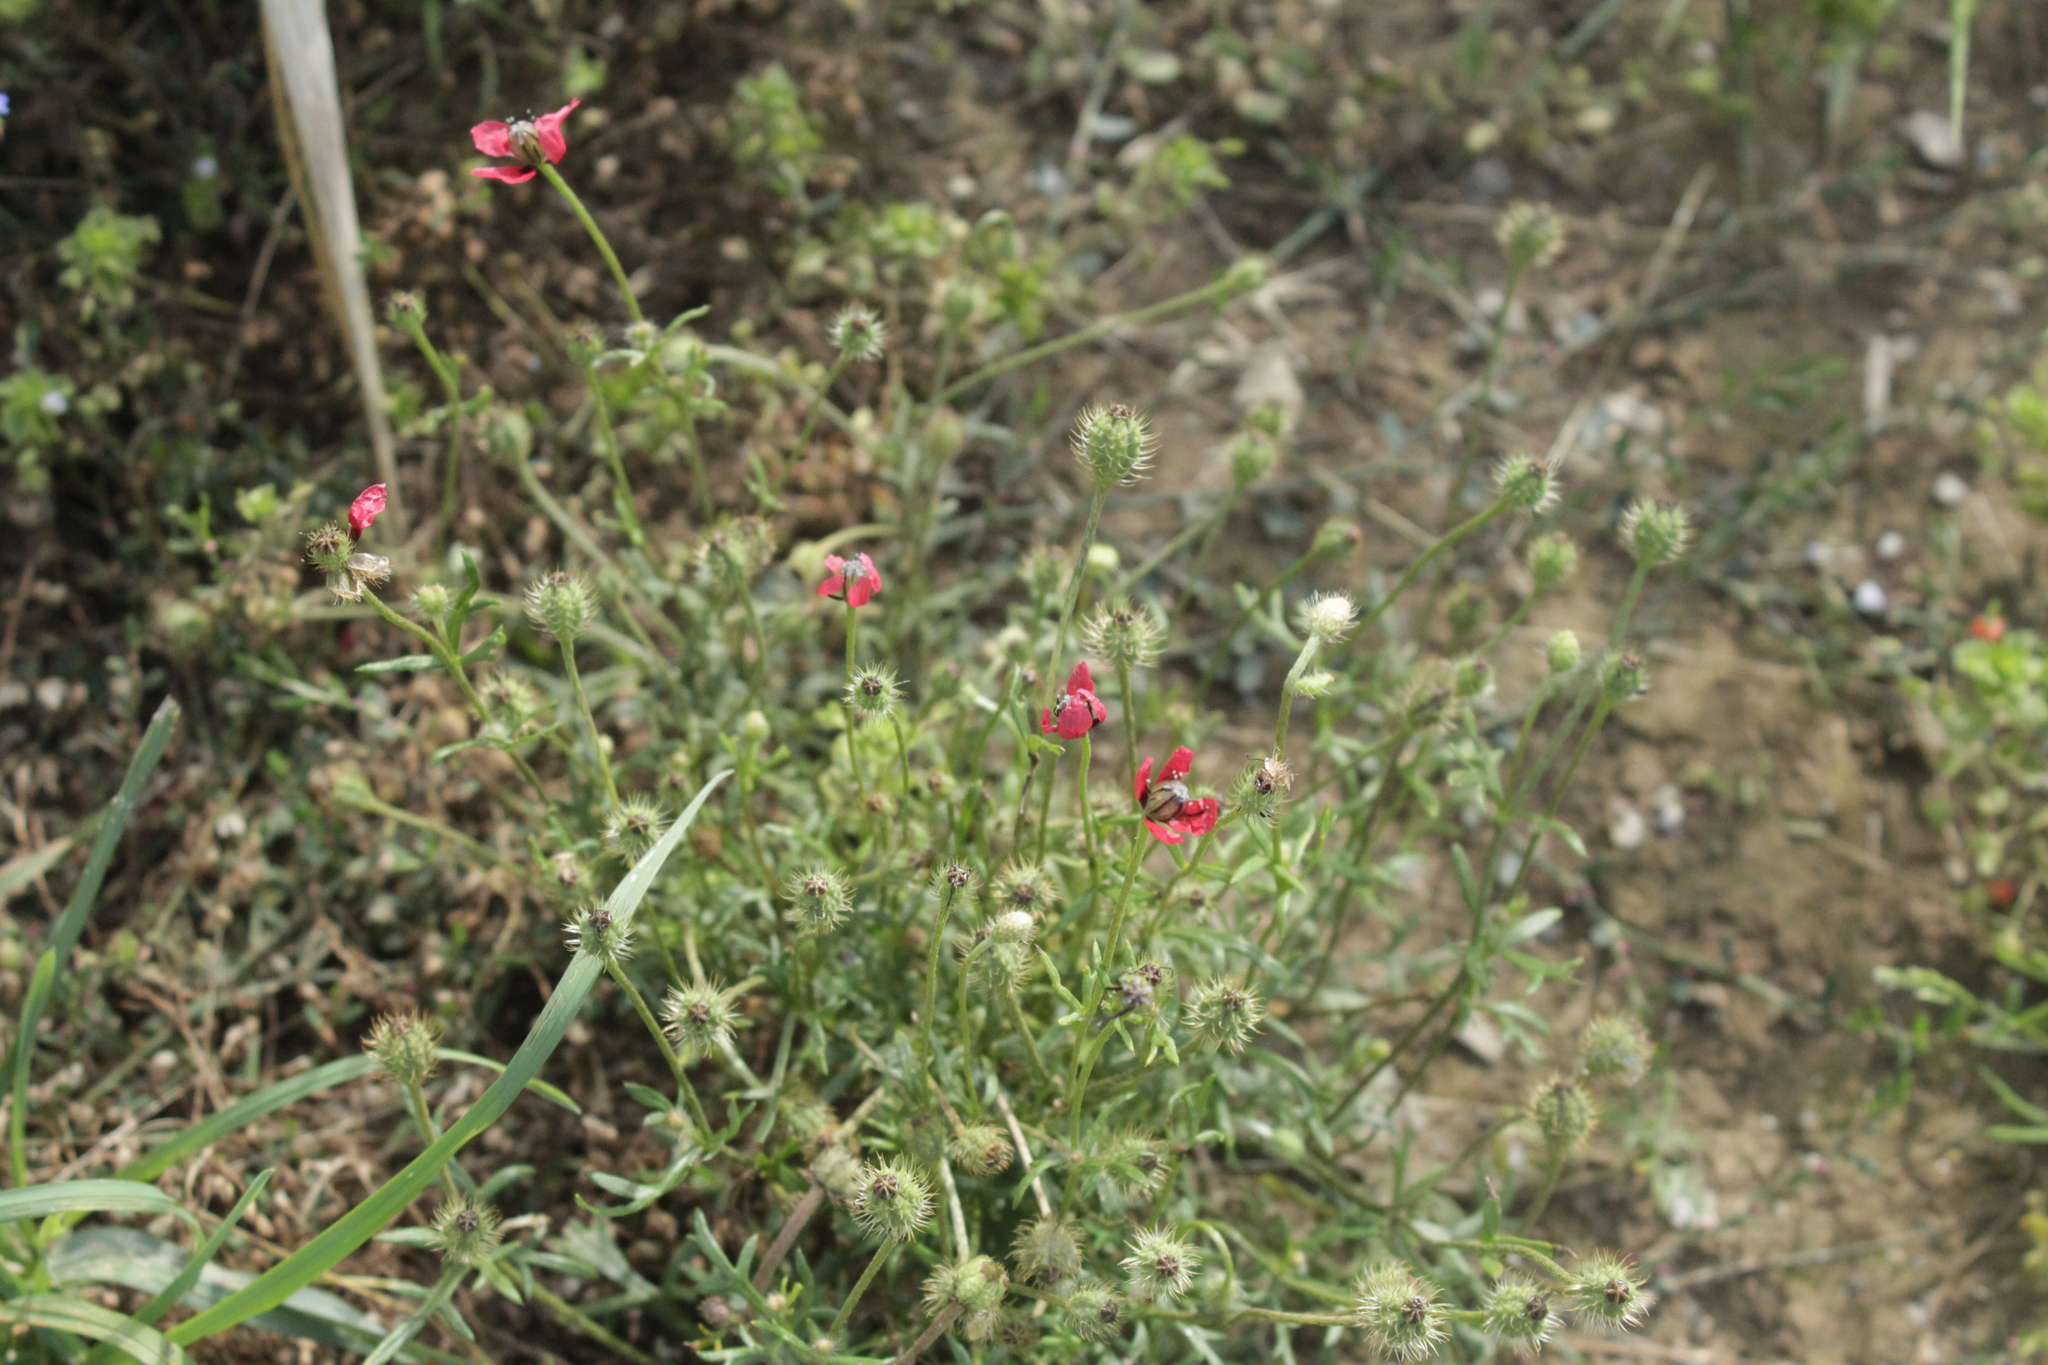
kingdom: Plantae
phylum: Tracheophyta
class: Magnoliopsida
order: Ranunculales
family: Papaveraceae
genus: Roemeria
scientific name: Roemeria hispida
